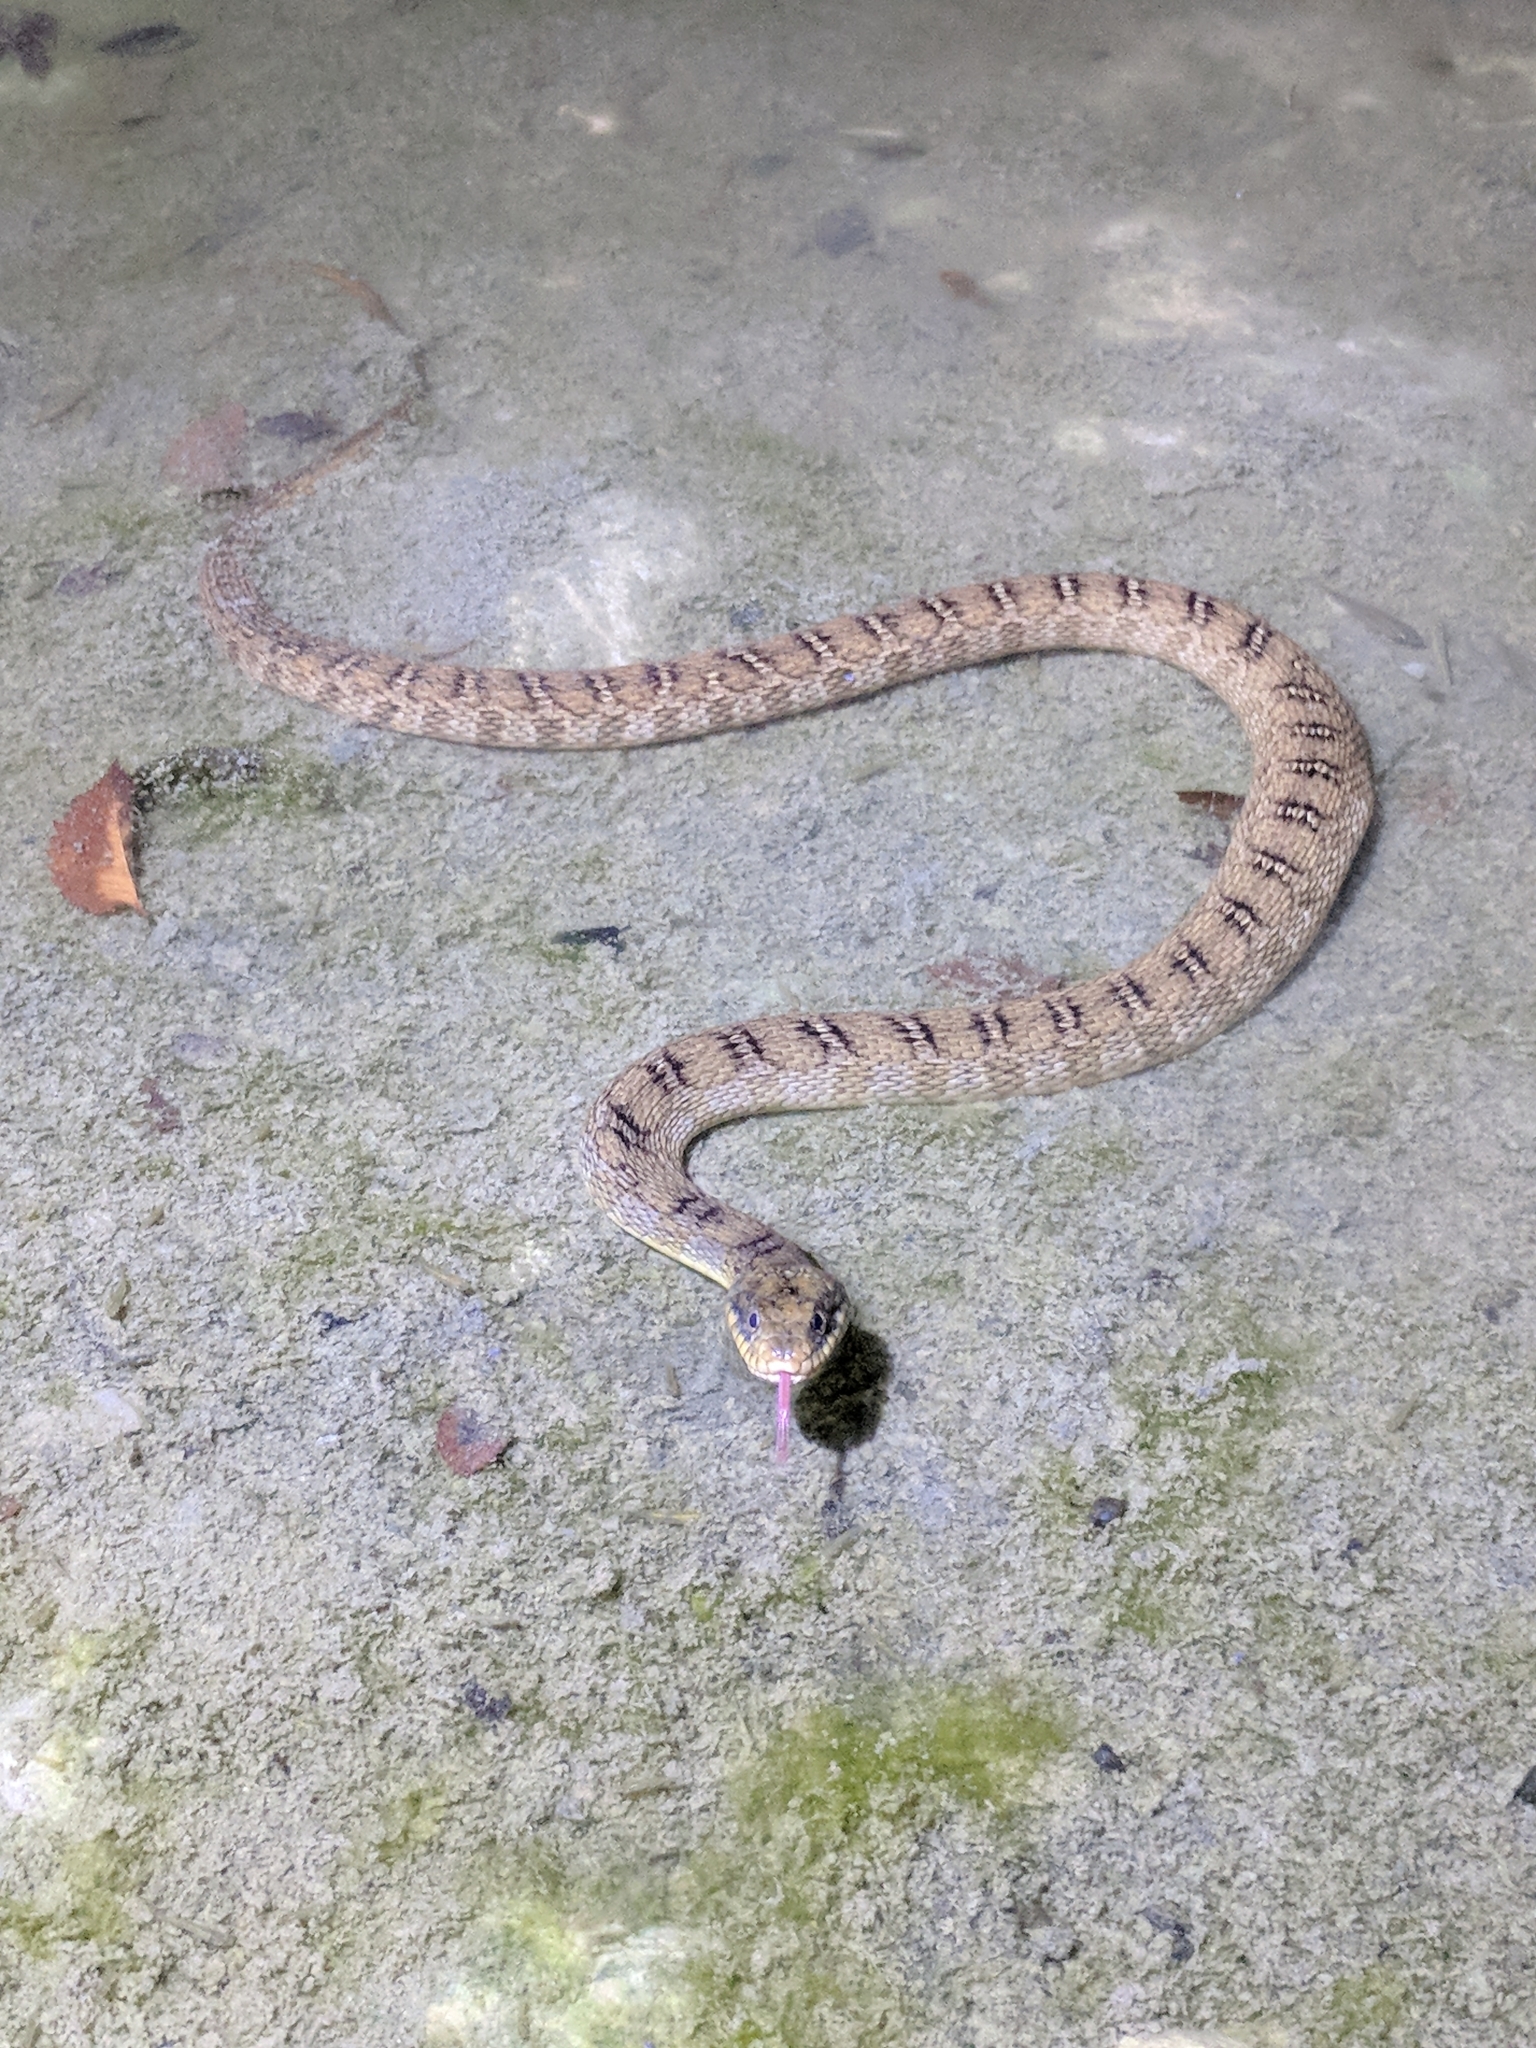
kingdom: Animalia
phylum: Chordata
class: Squamata
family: Colubridae
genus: Nerodia
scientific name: Nerodia erythrogaster
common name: Plainbelly water snake
